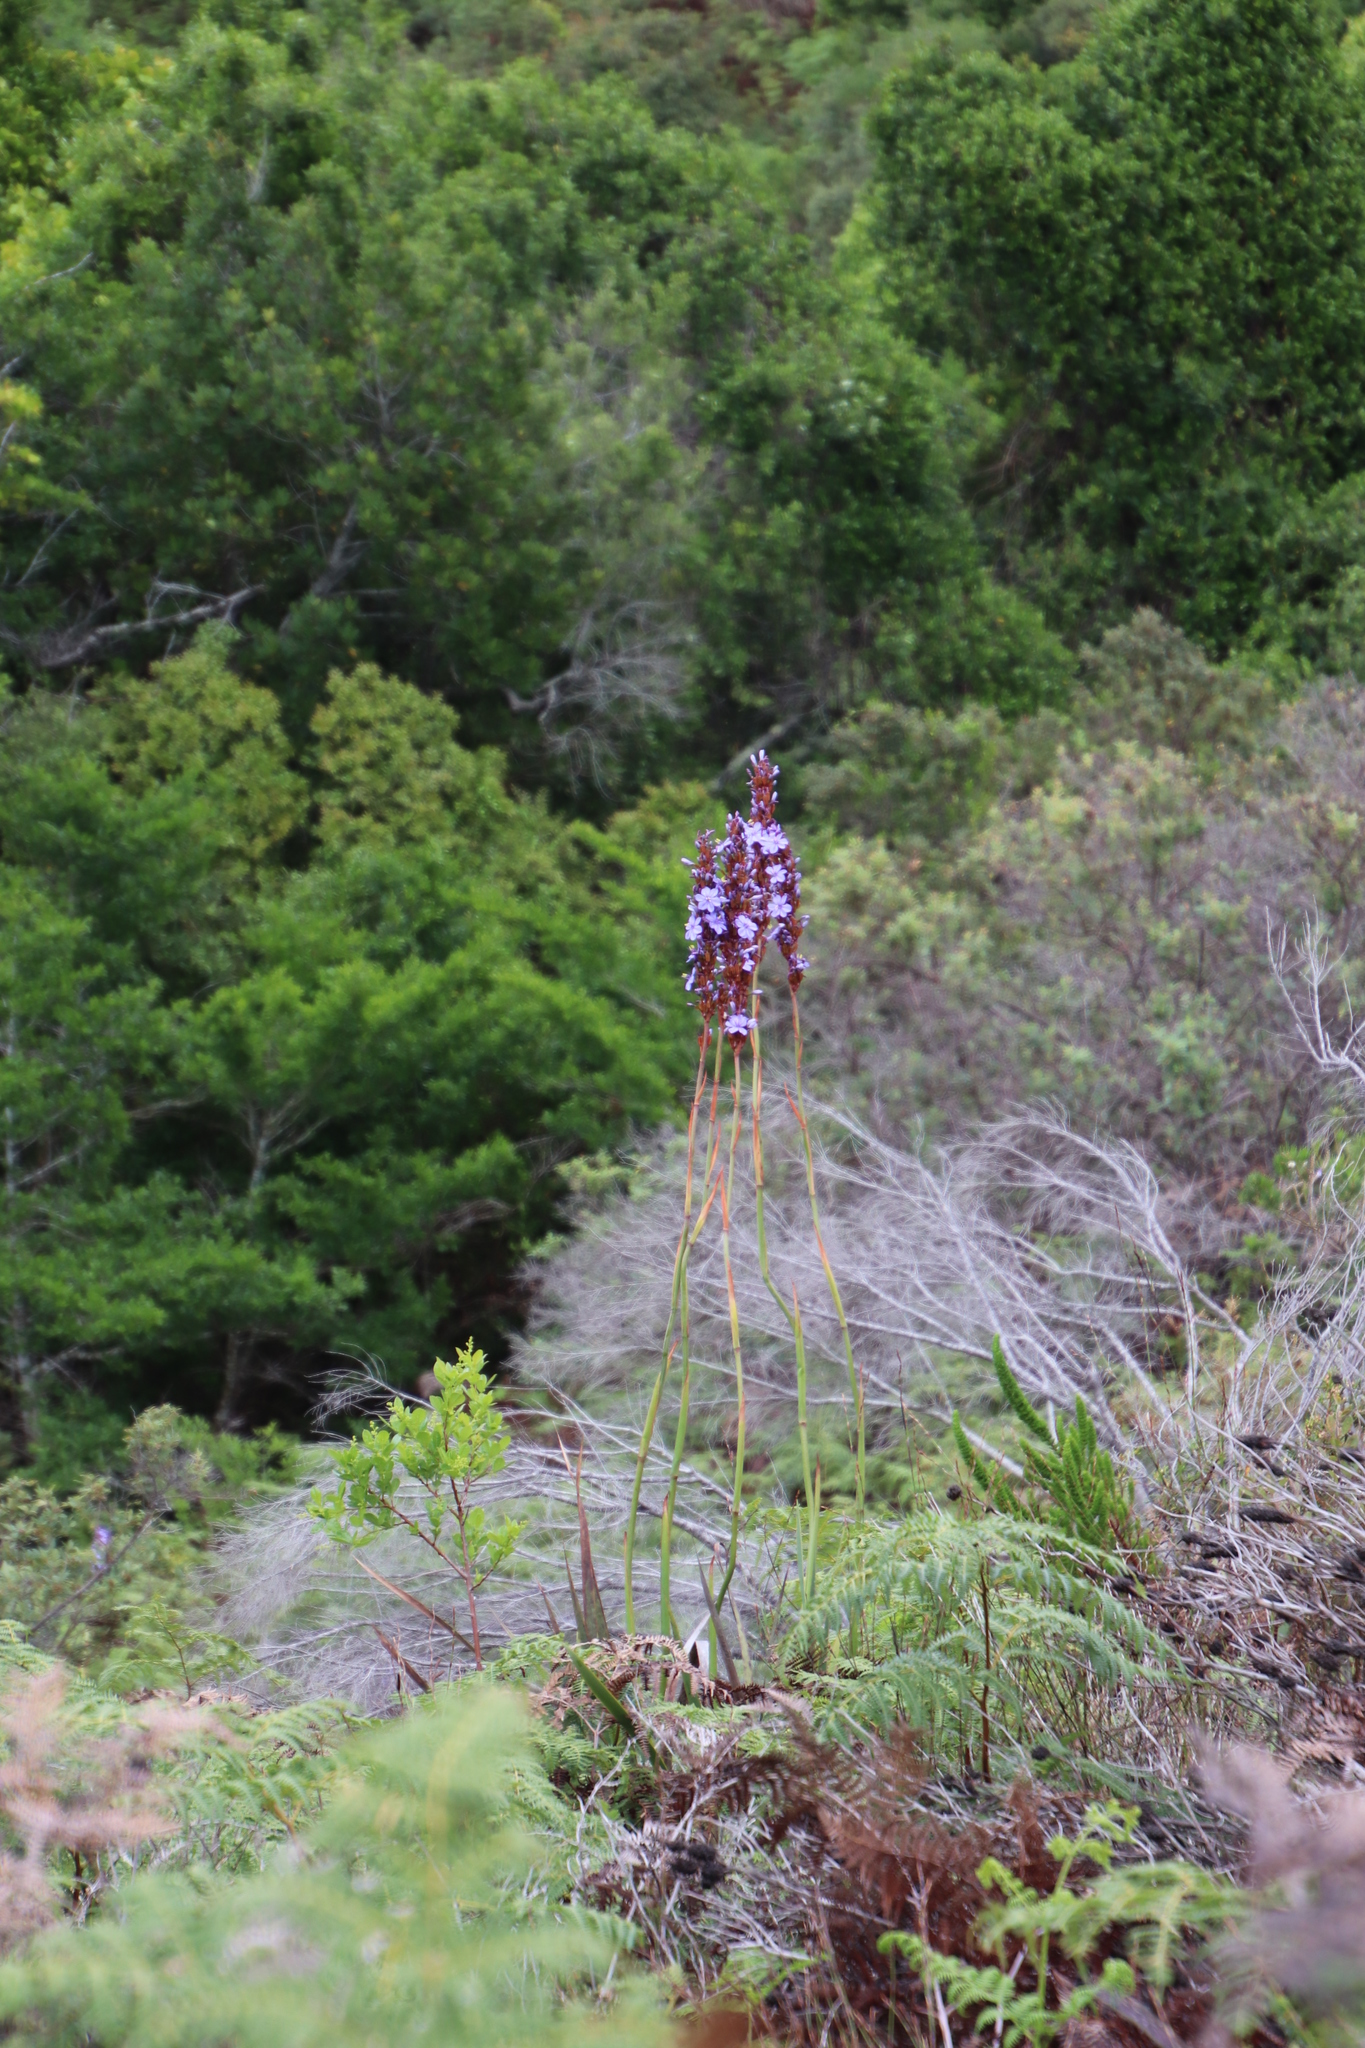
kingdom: Plantae
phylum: Tracheophyta
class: Liliopsida
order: Asparagales
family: Iridaceae
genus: Aristea
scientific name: Aristea capitata
